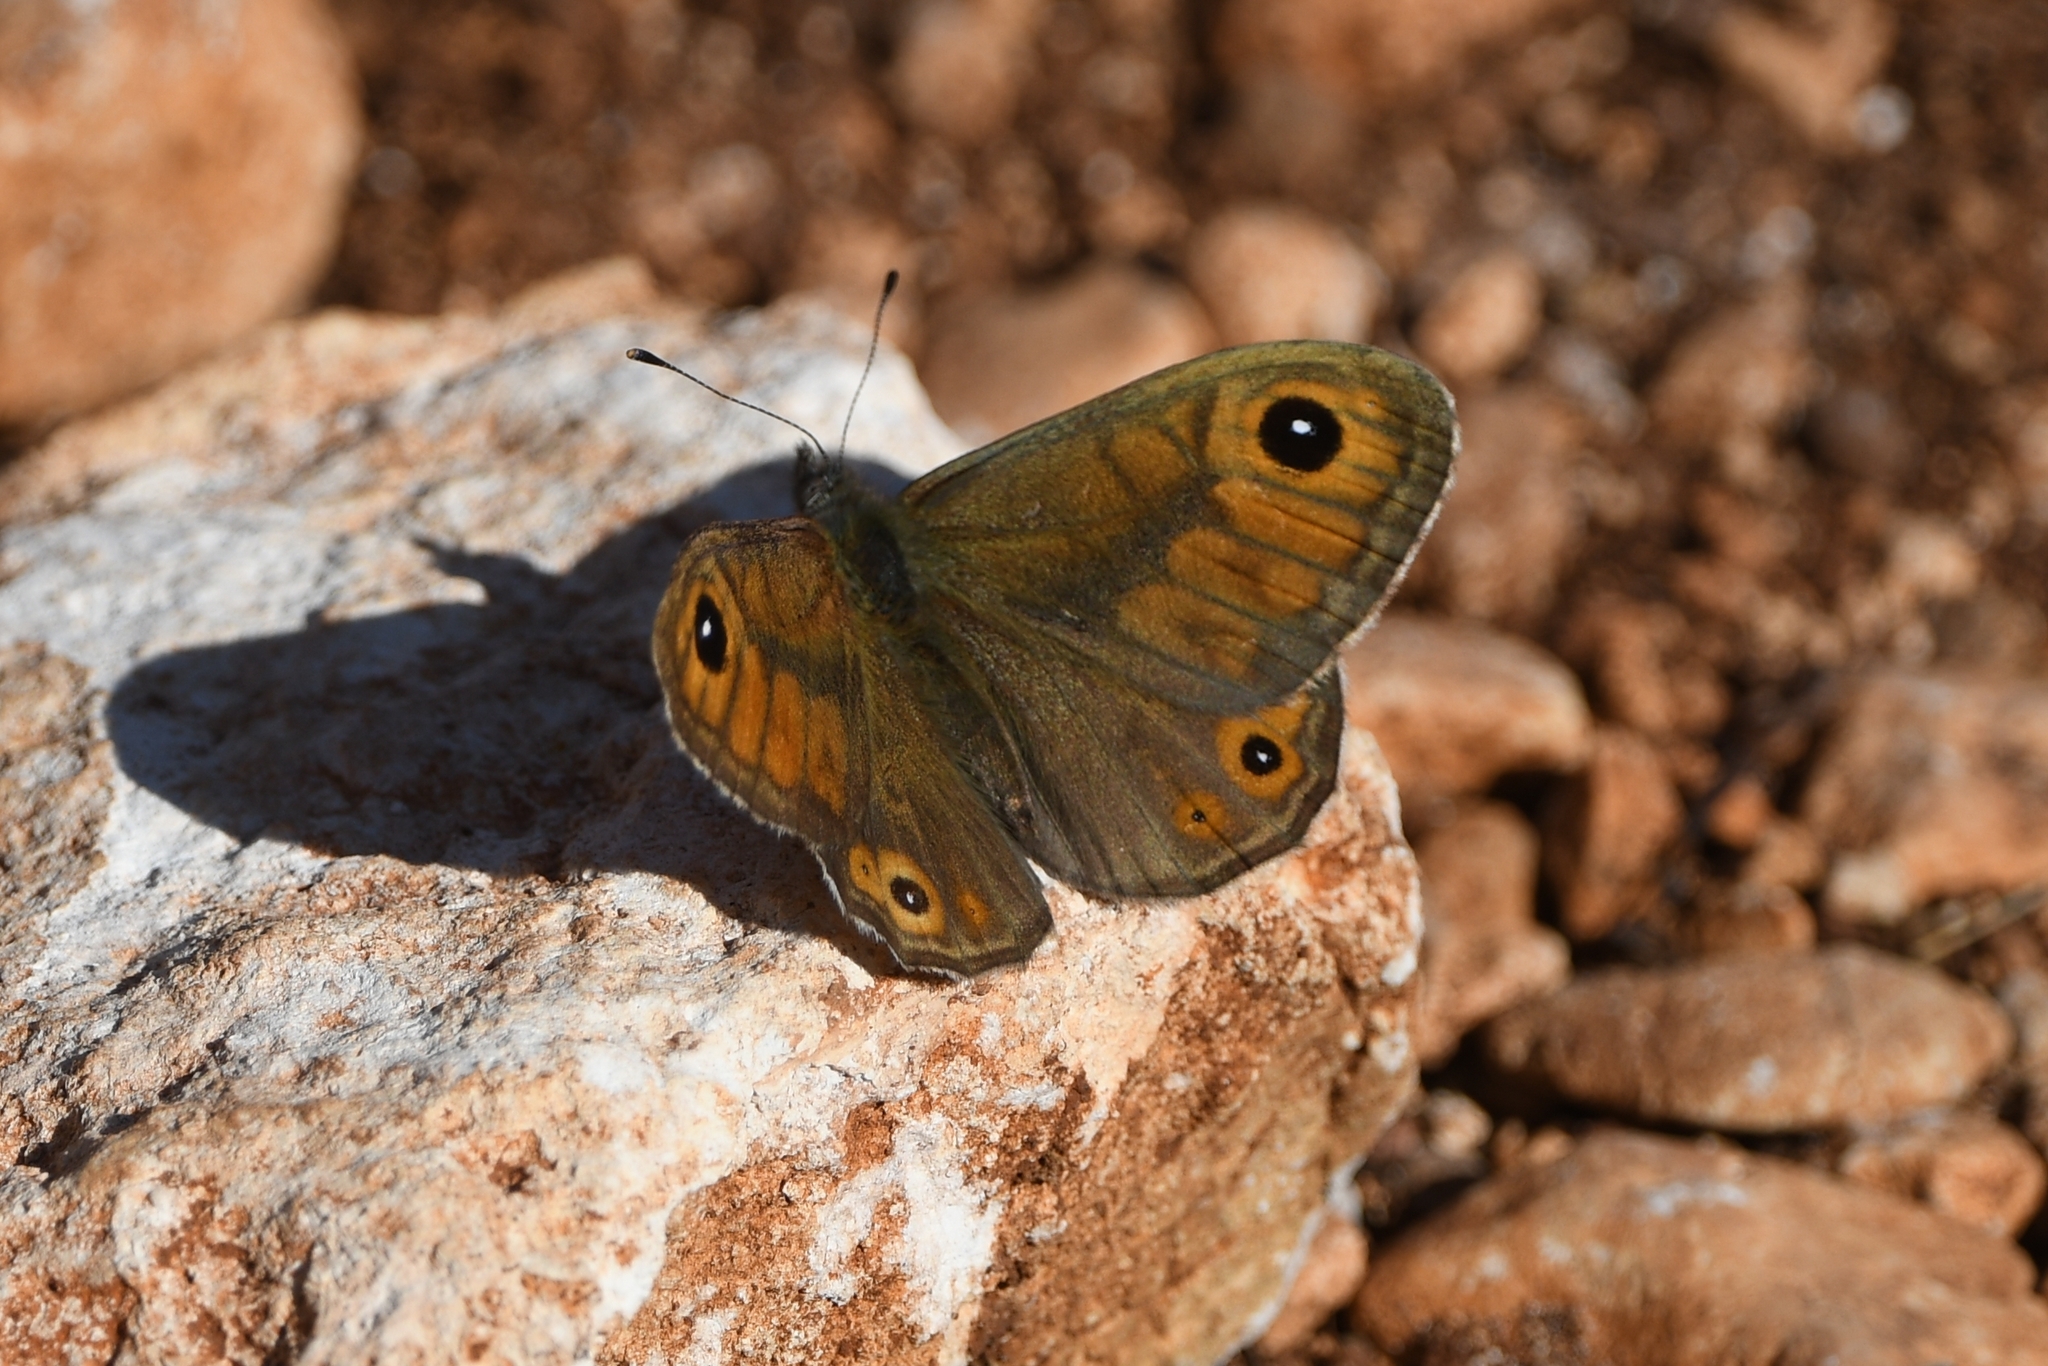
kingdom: Animalia
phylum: Arthropoda
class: Insecta
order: Lepidoptera
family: Nymphalidae
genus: Pararge
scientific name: Pararge Lasiommata maera
